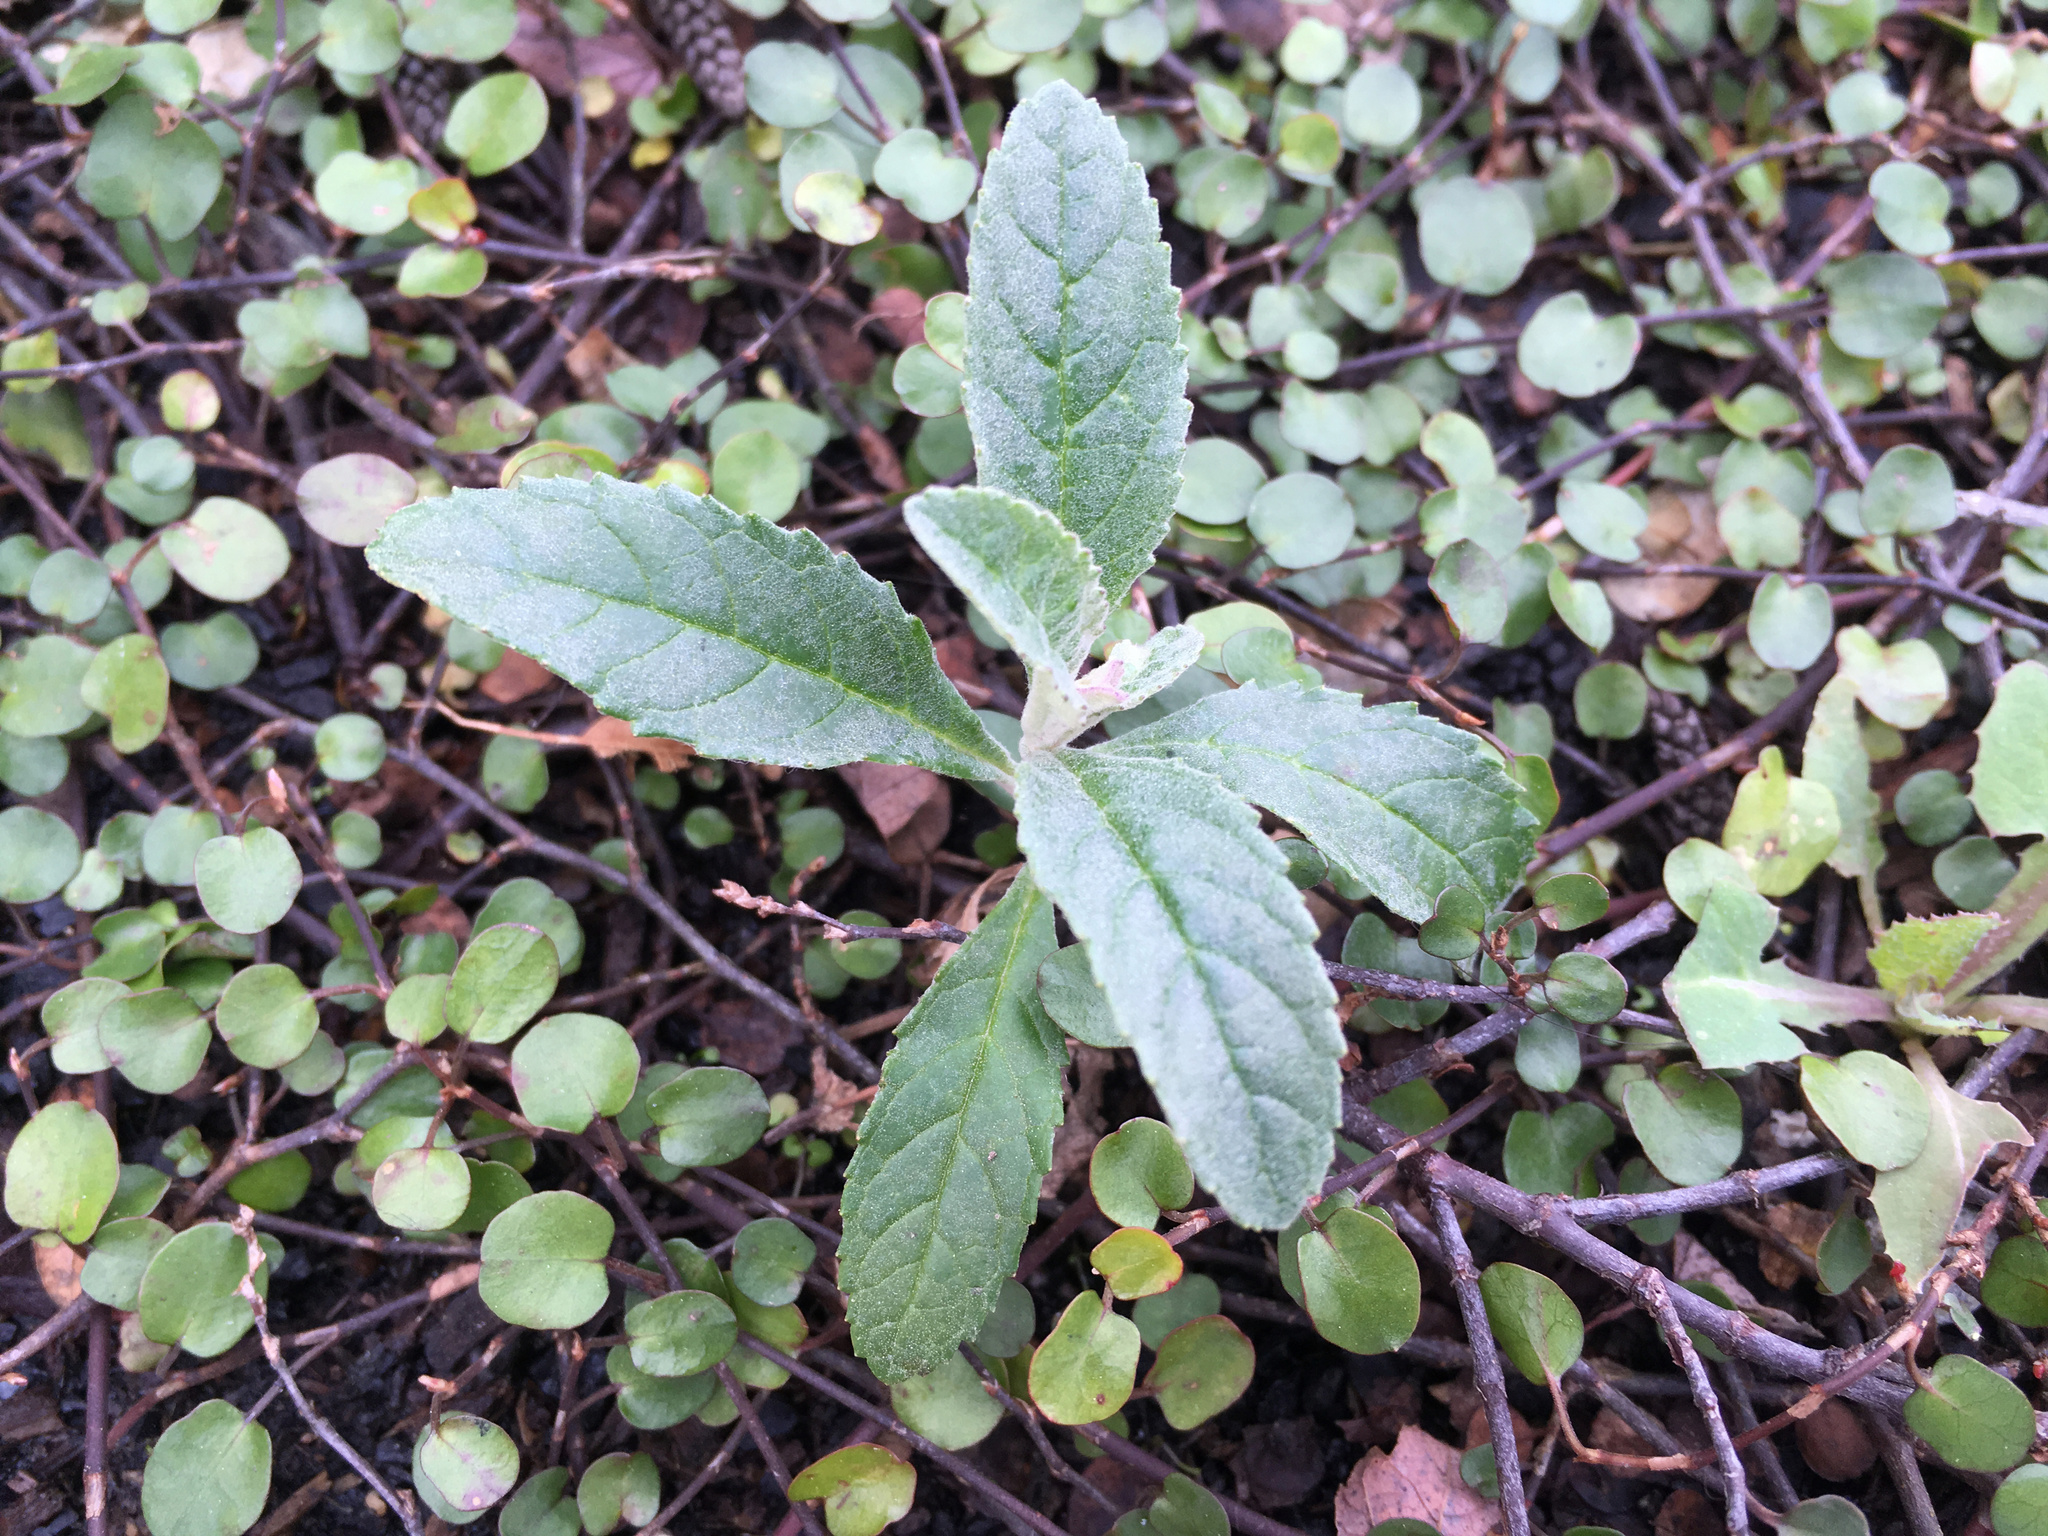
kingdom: Plantae
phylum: Tracheophyta
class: Magnoliopsida
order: Lamiales
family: Scrophulariaceae
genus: Buddleja
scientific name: Buddleja davidii
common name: Butterfly-bush
